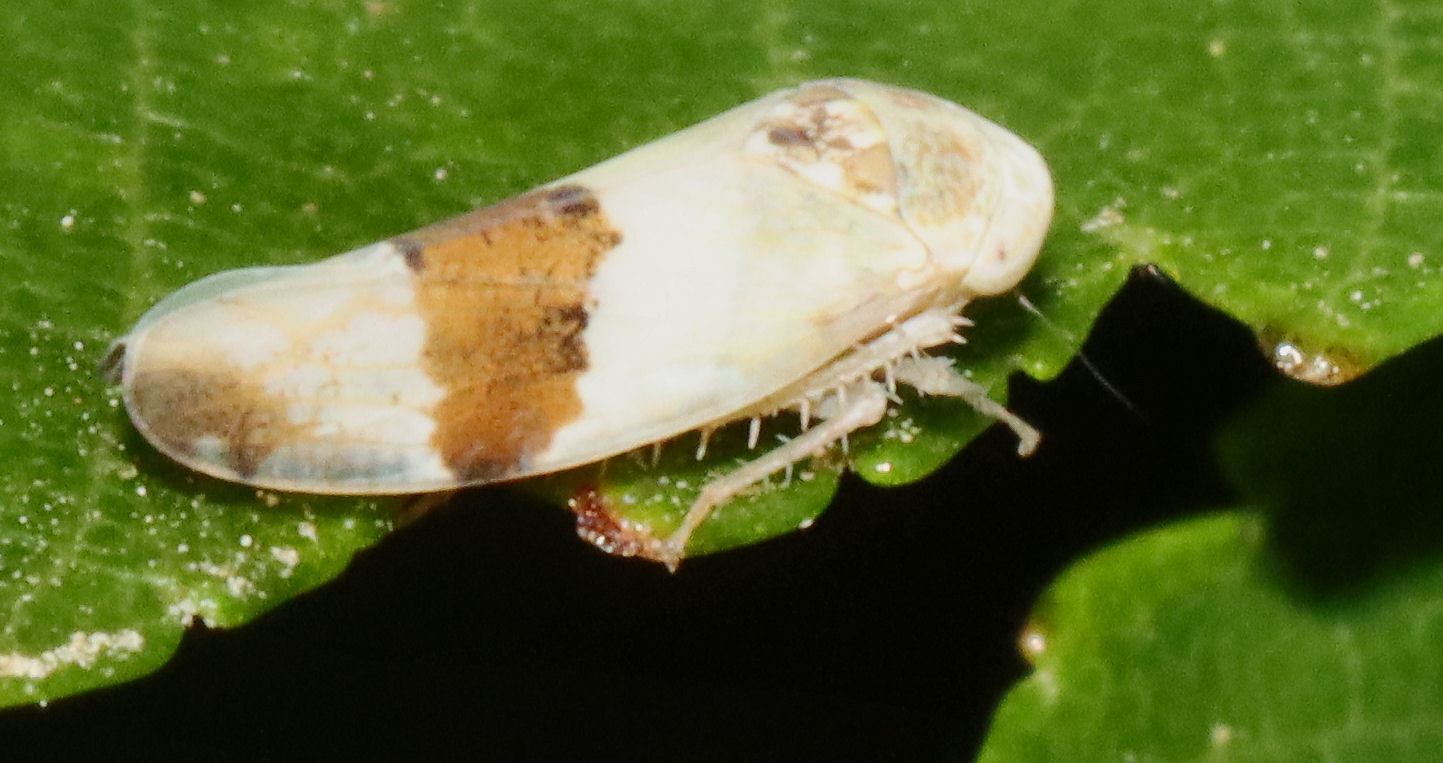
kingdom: Animalia
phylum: Arthropoda
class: Insecta
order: Hemiptera
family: Cicadellidae
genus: Norvellina
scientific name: Norvellina seminuda
